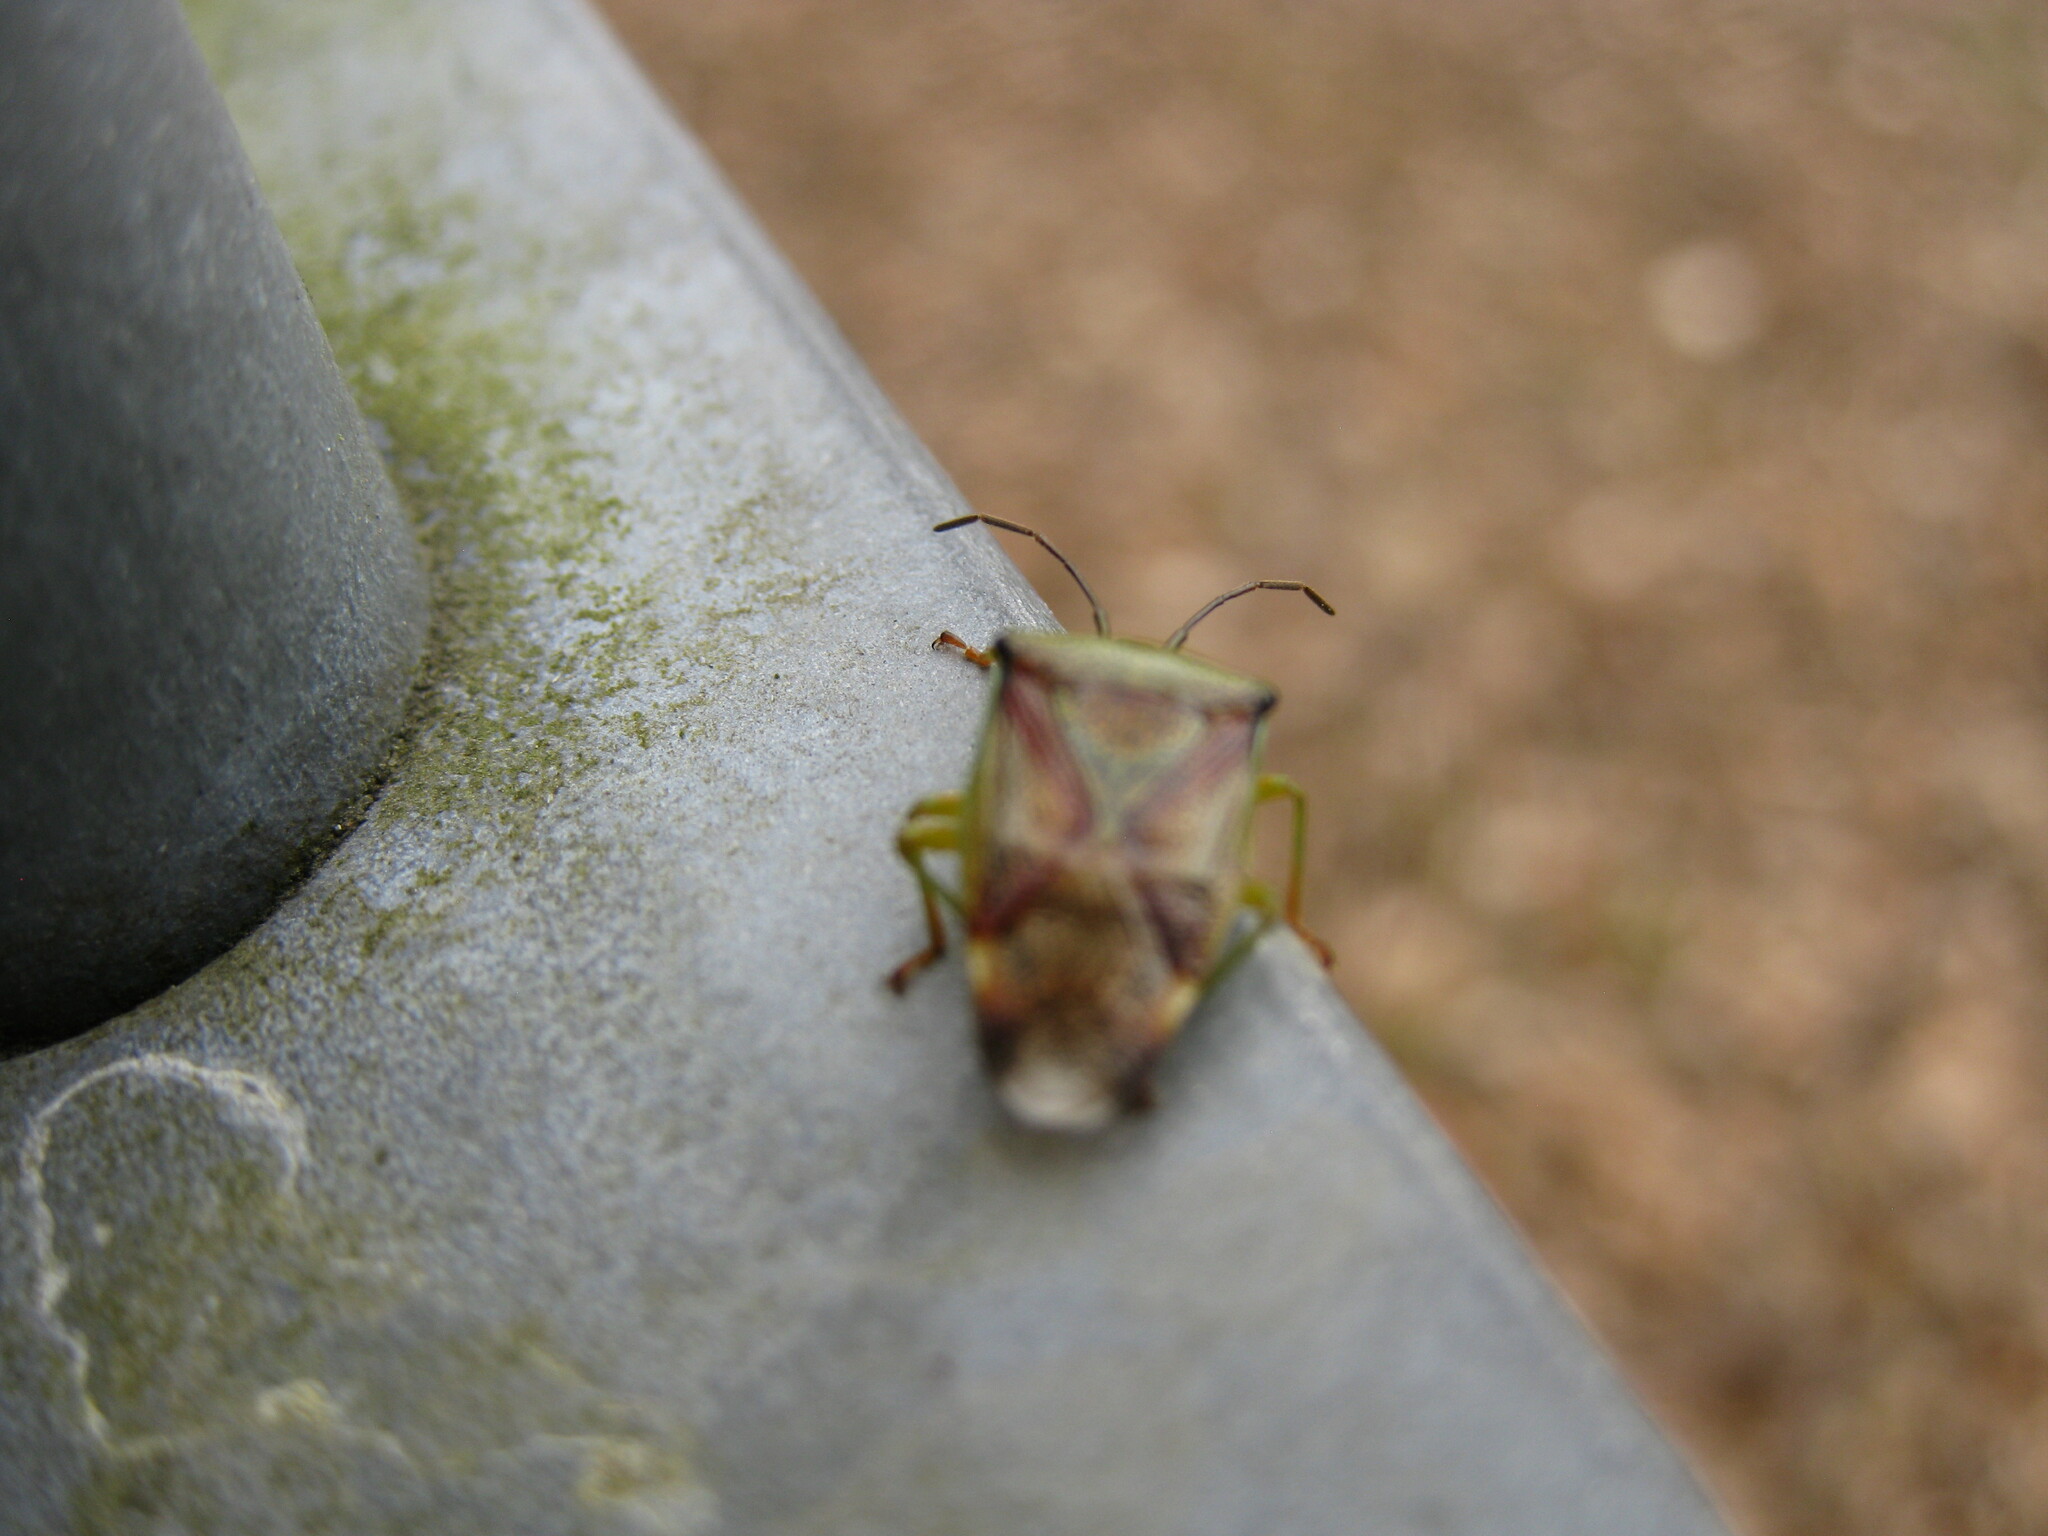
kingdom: Animalia
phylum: Arthropoda
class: Insecta
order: Hemiptera
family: Acanthosomatidae
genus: Elasmostethus
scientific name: Elasmostethus interstinctus
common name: Birch shieldbug
